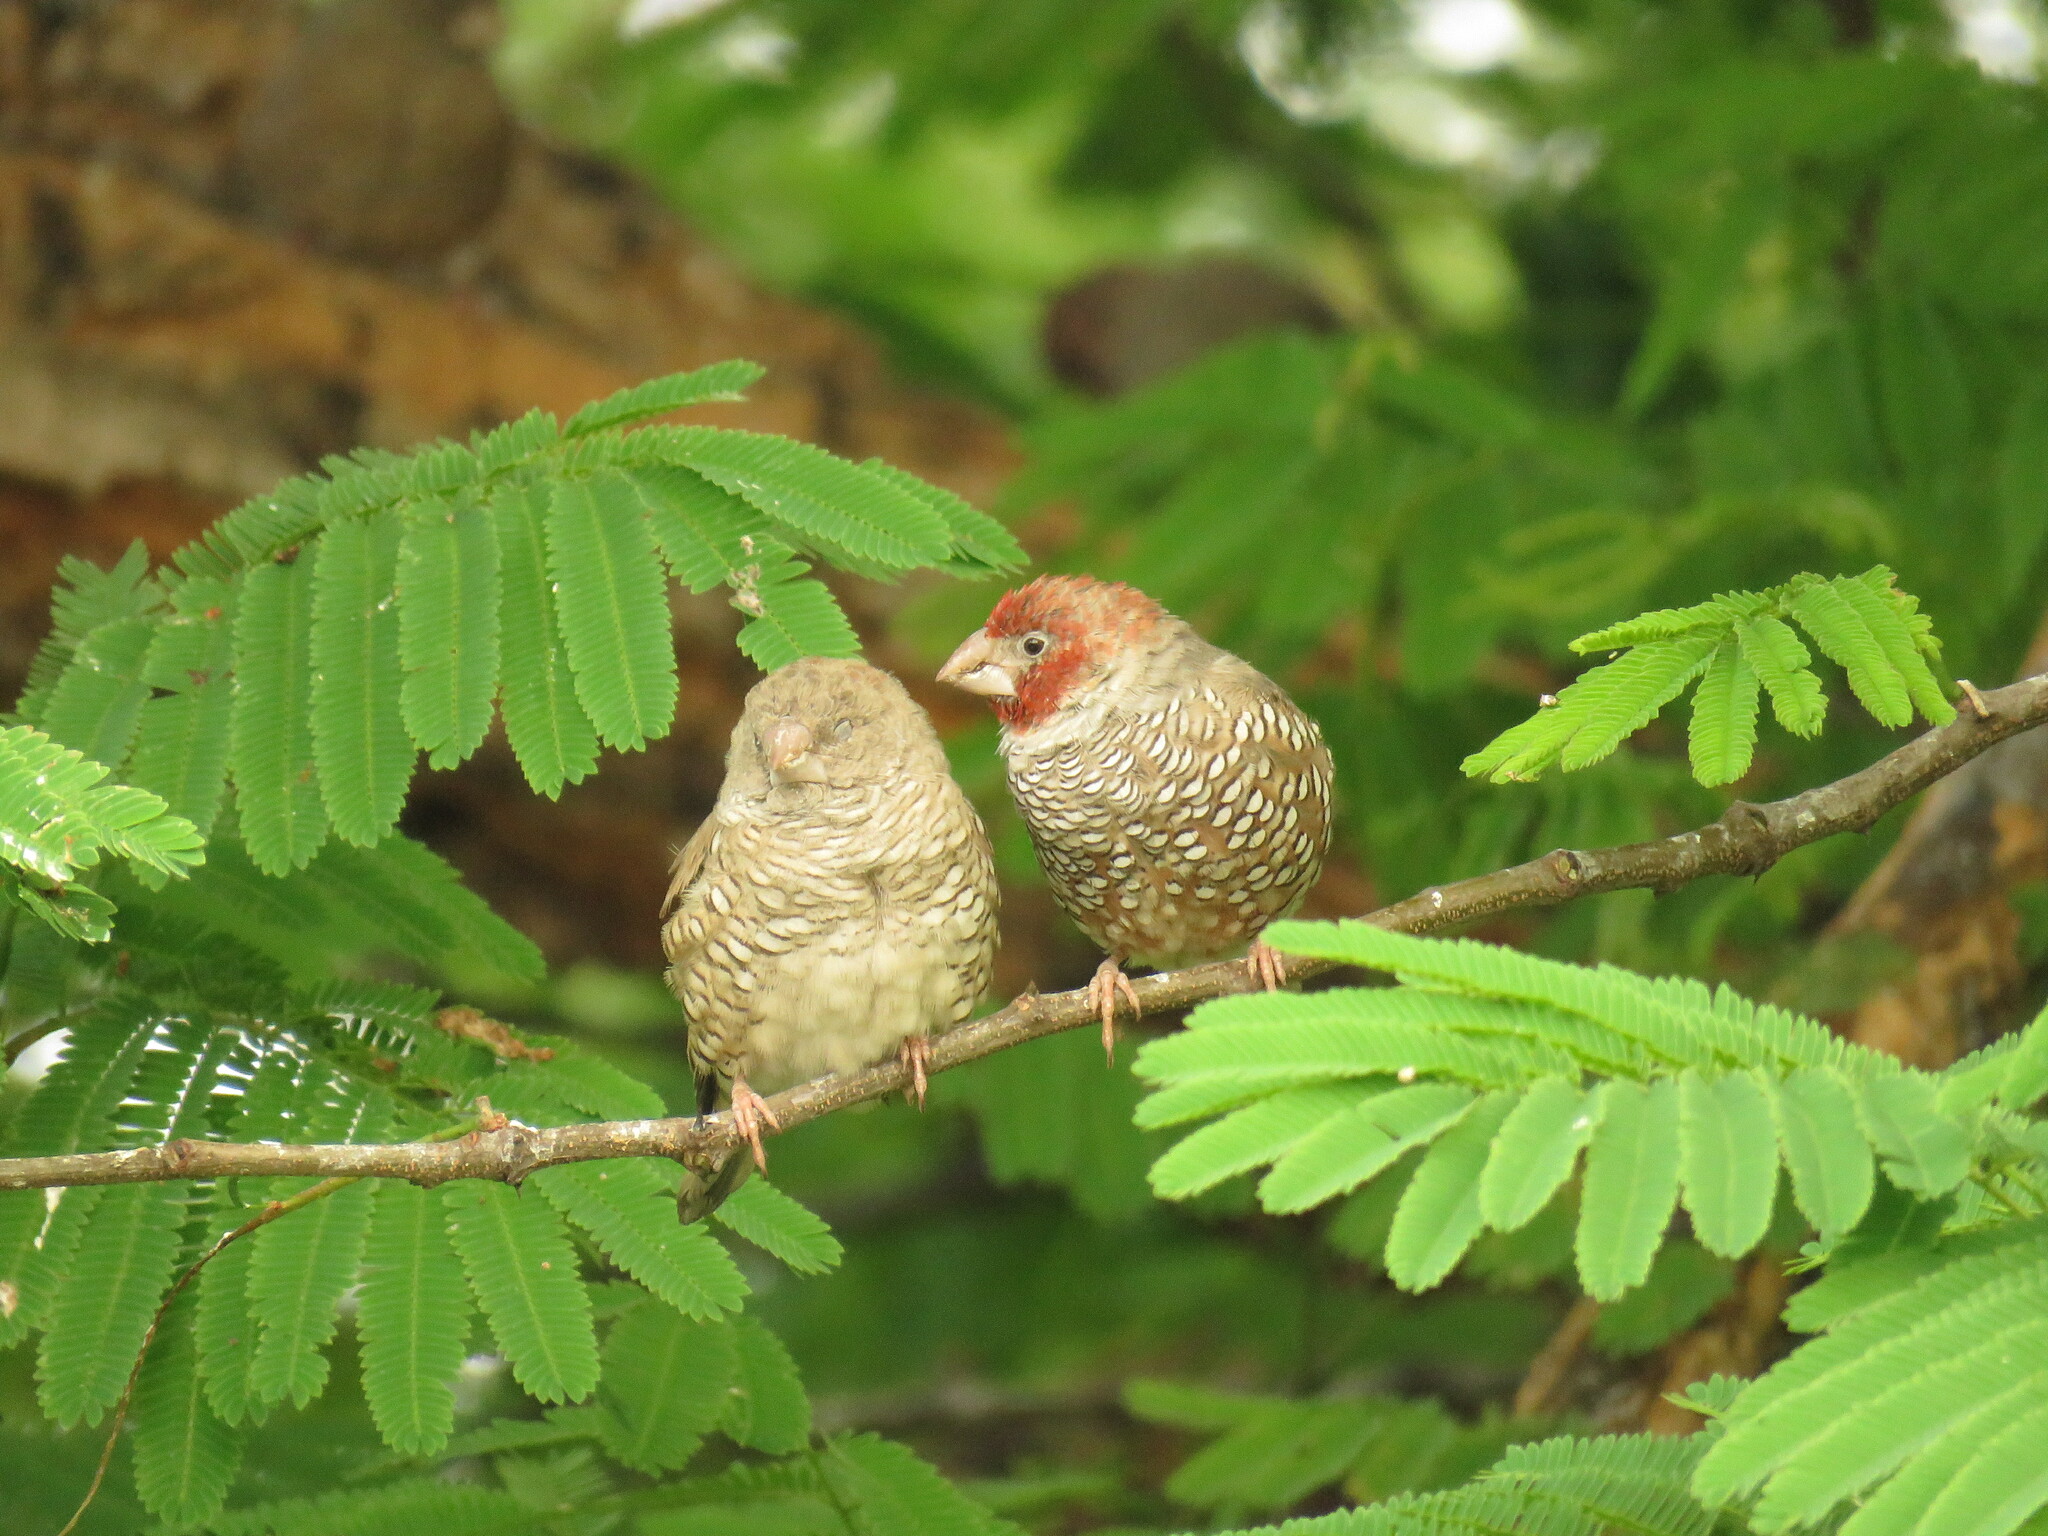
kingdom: Animalia
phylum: Chordata
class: Aves
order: Passeriformes
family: Estrildidae
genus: Amadina
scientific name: Amadina erythrocephala
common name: Red-headed finch
